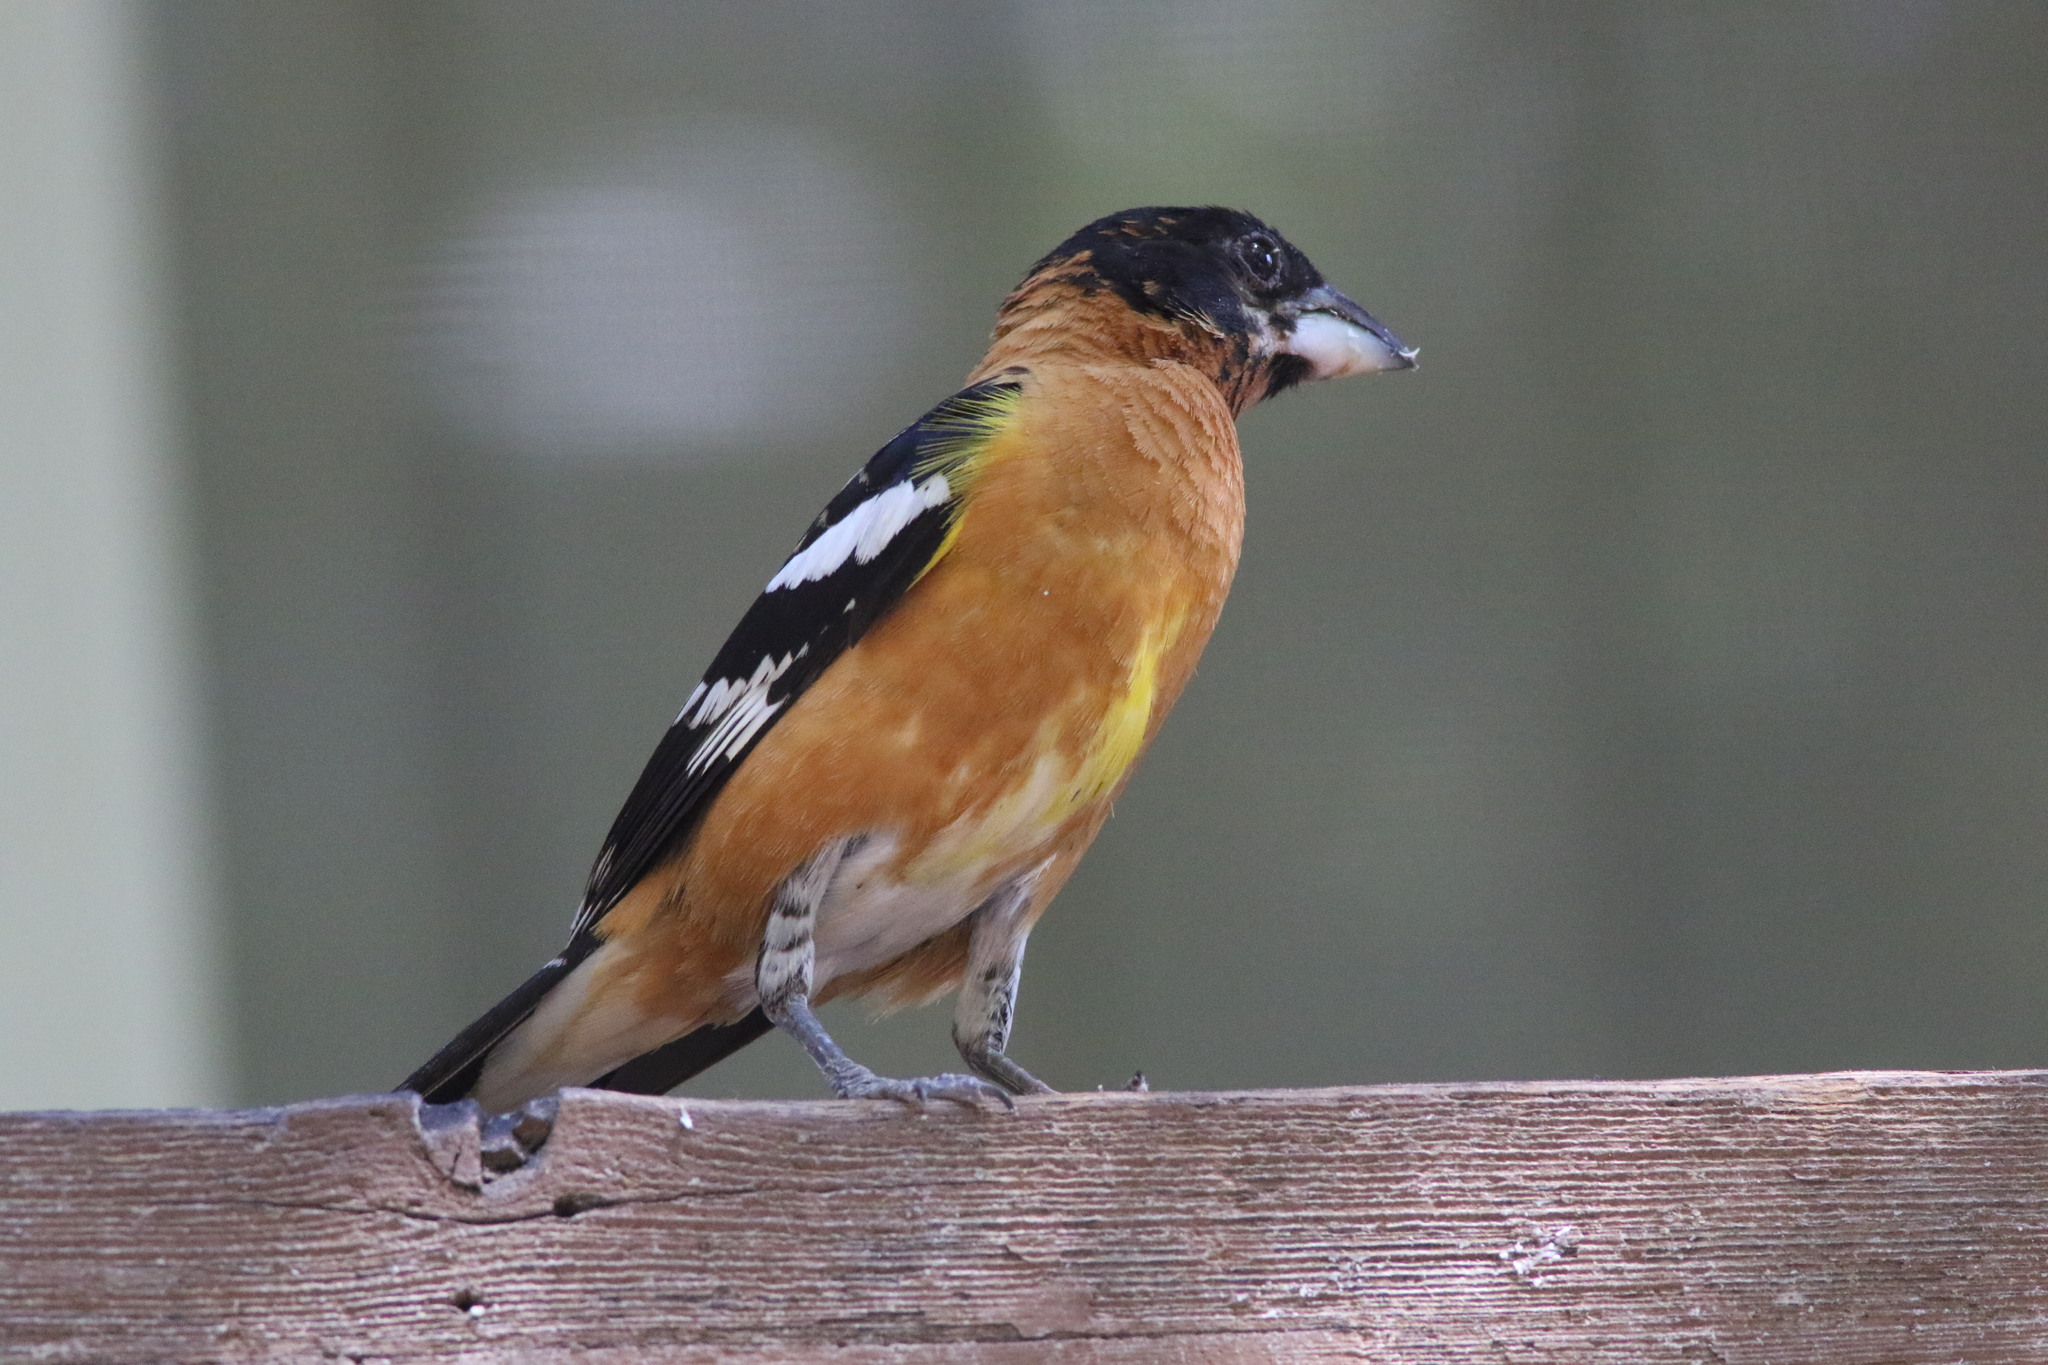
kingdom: Animalia
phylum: Chordata
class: Aves
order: Passeriformes
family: Cardinalidae
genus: Pheucticus
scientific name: Pheucticus melanocephalus
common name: Black-headed grosbeak
